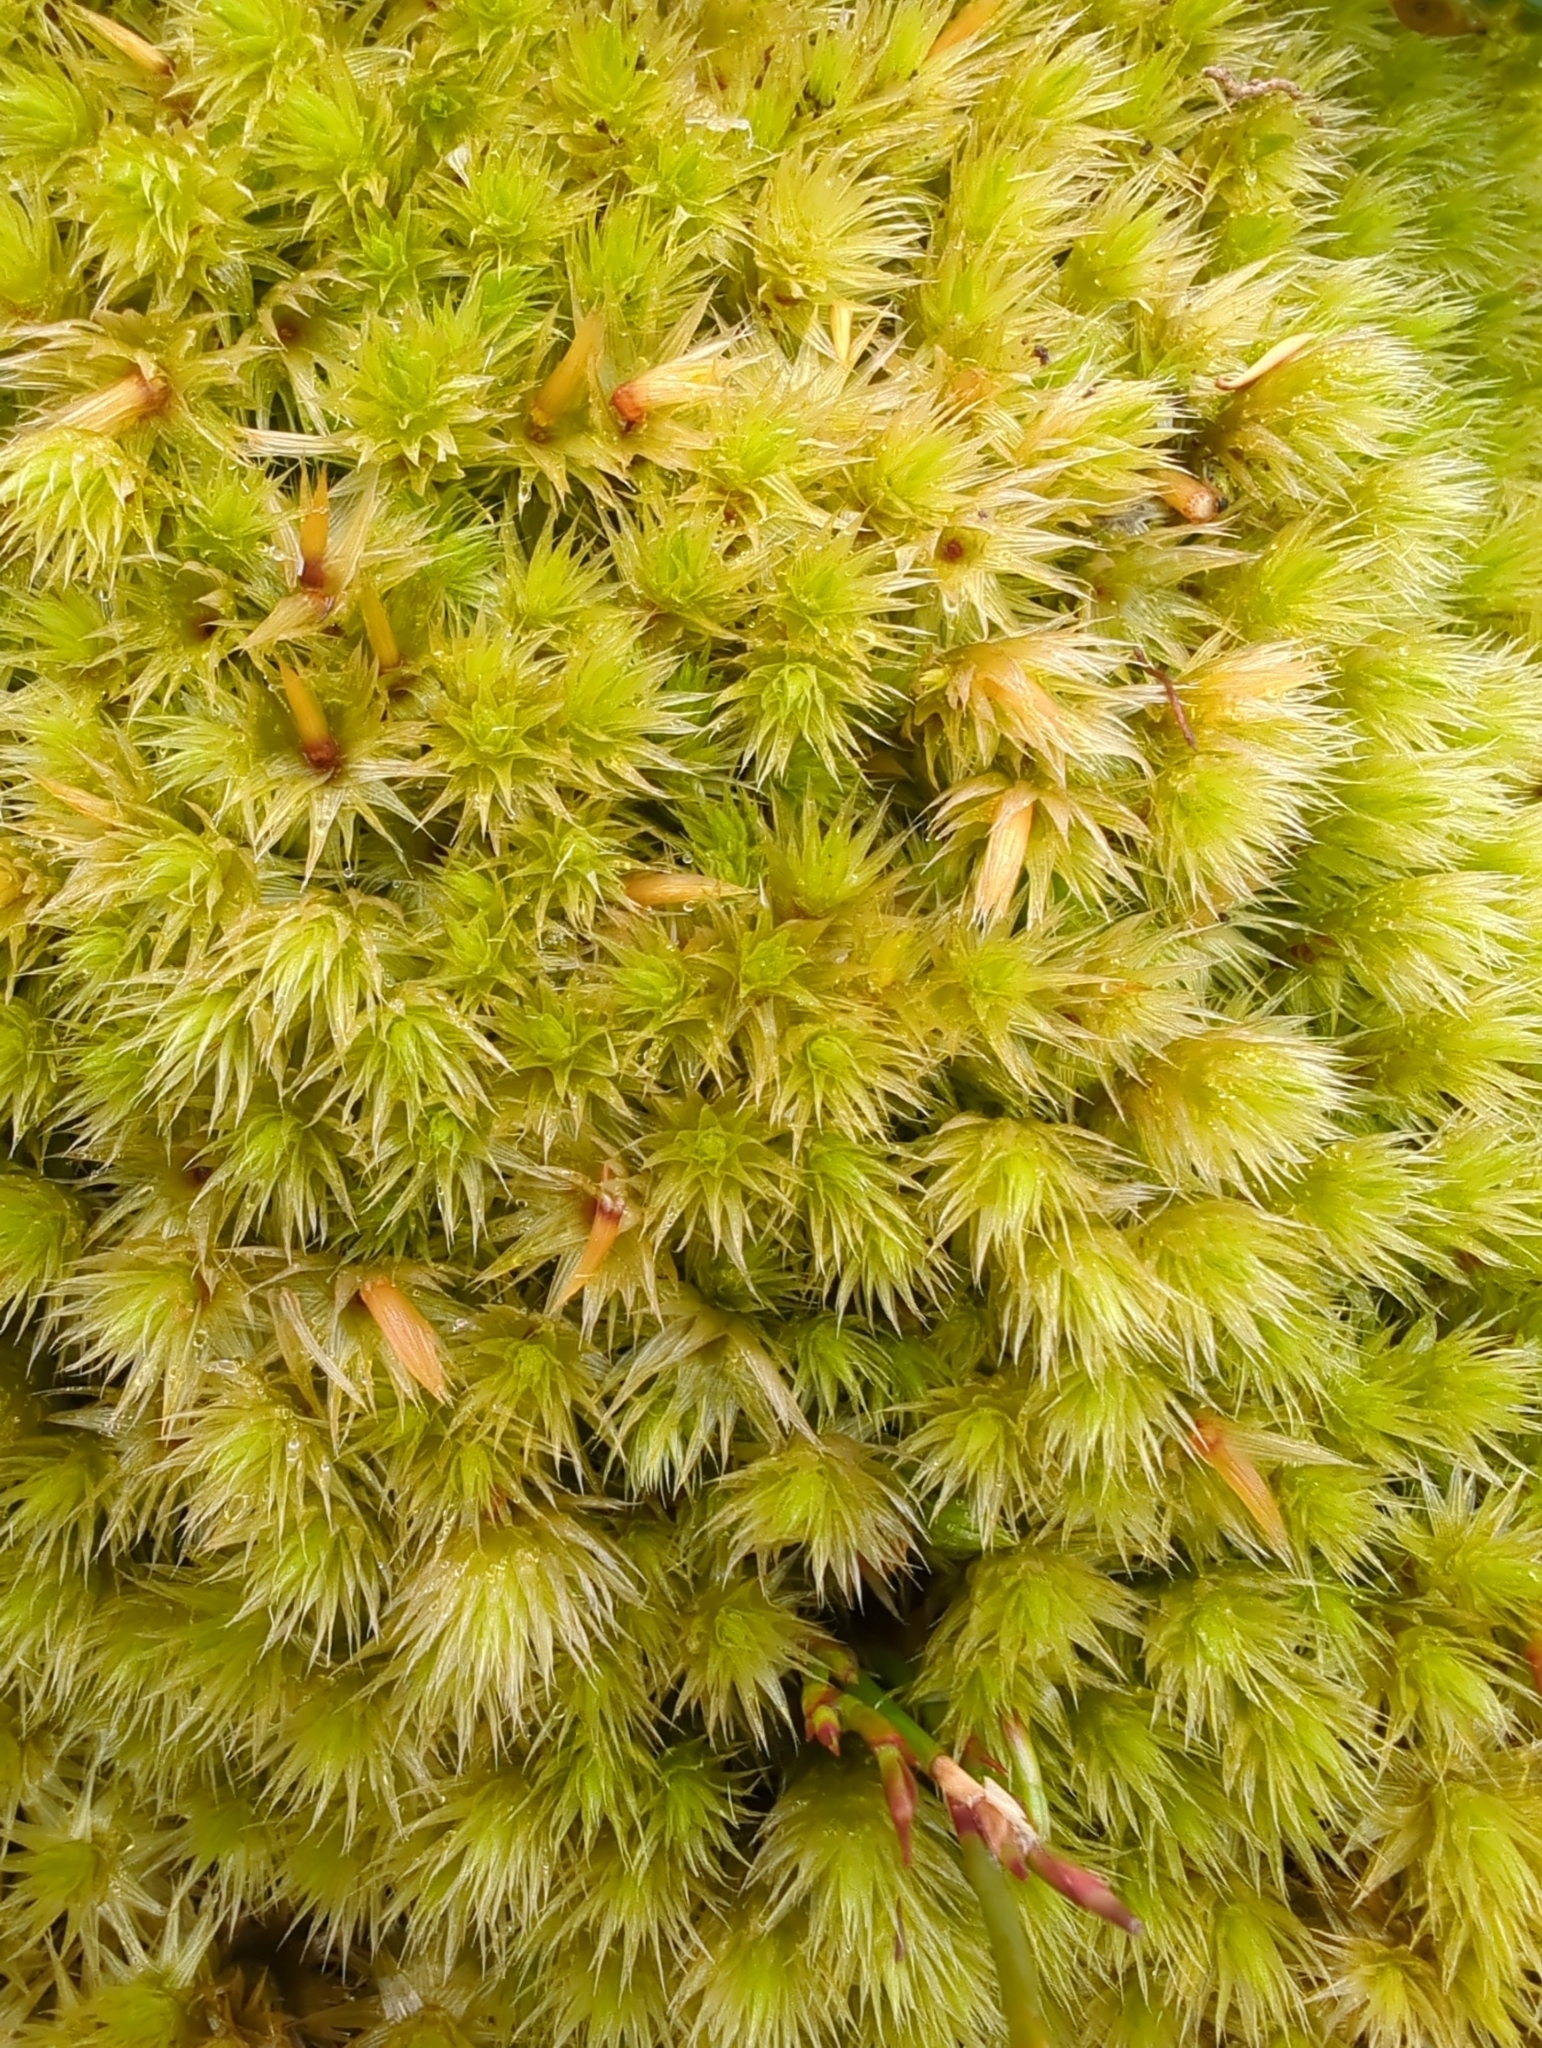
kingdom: Plantae
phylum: Bryophyta
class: Bryopsida
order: Bartramiales
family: Bartramiaceae
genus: Breutelia
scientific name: Breutelia pendula
